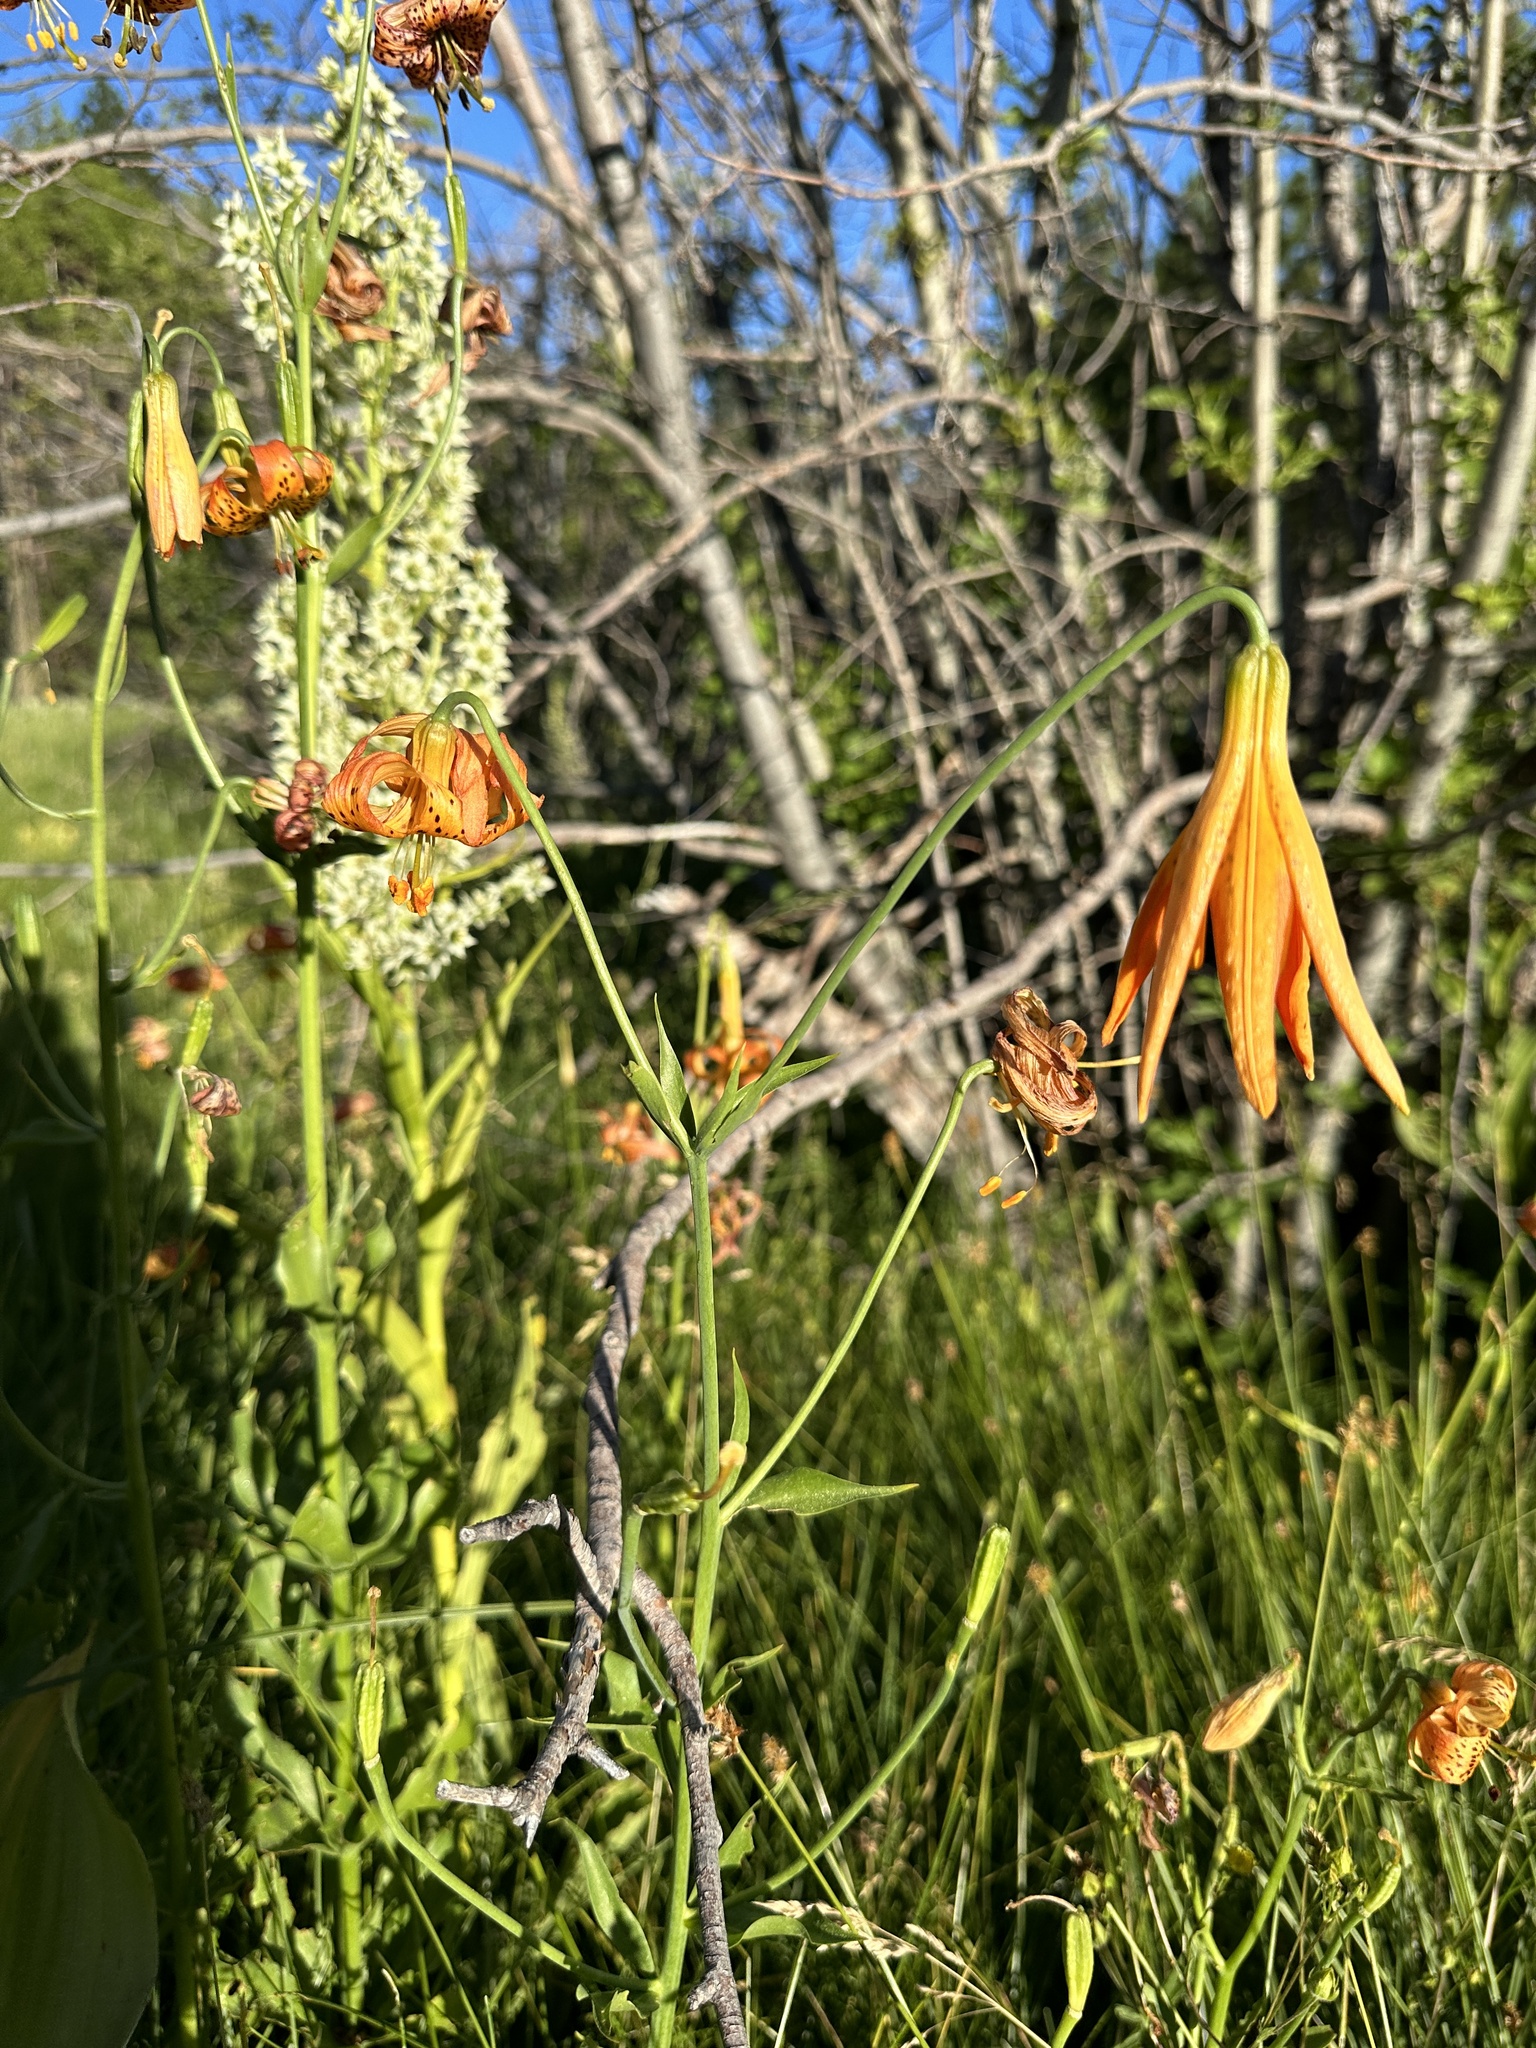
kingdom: Plantae
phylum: Tracheophyta
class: Liliopsida
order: Liliales
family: Liliaceae
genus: Lilium
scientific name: Lilium pardalinum
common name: Panther lily
